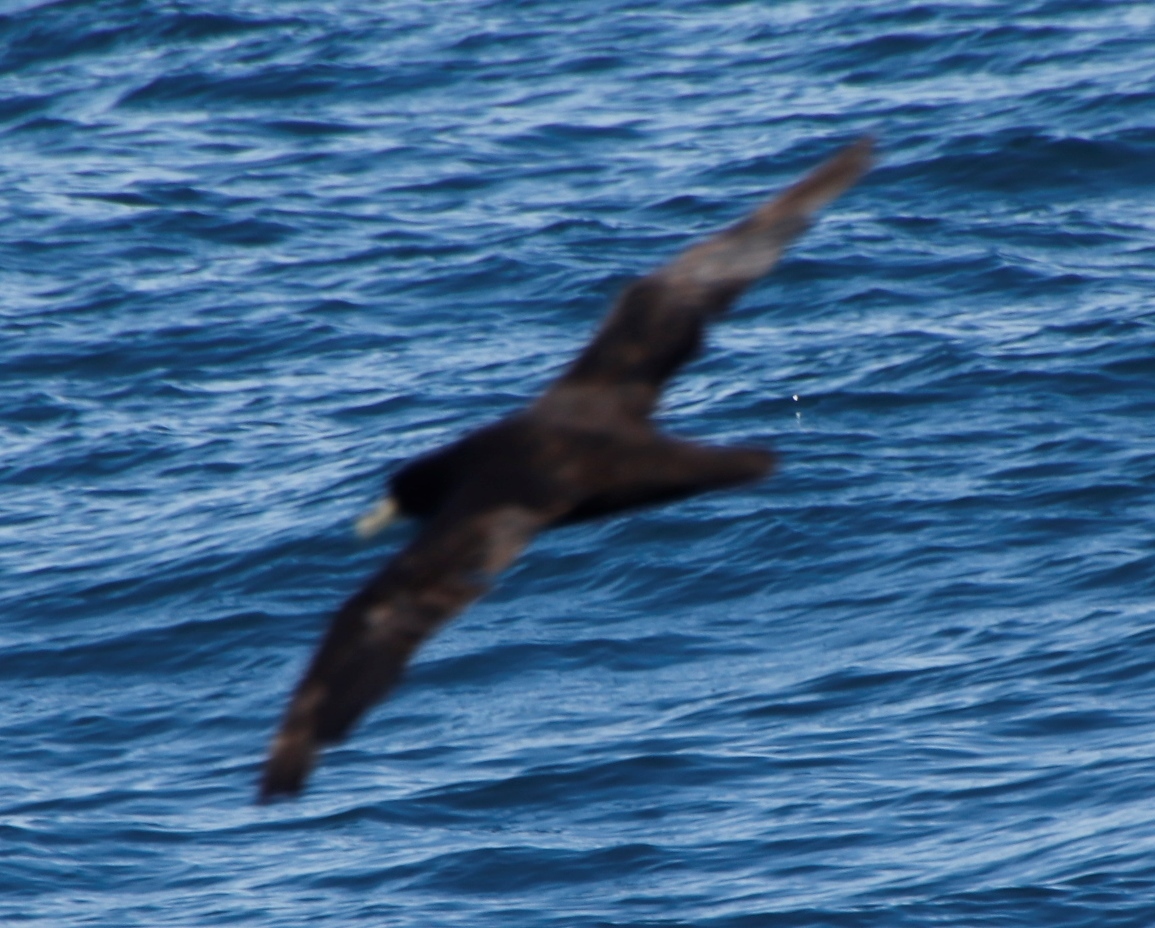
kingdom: Animalia
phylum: Chordata
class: Aves
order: Procellariiformes
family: Procellariidae
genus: Procellaria
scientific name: Procellaria aequinoctialis
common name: White-chinned petrel
